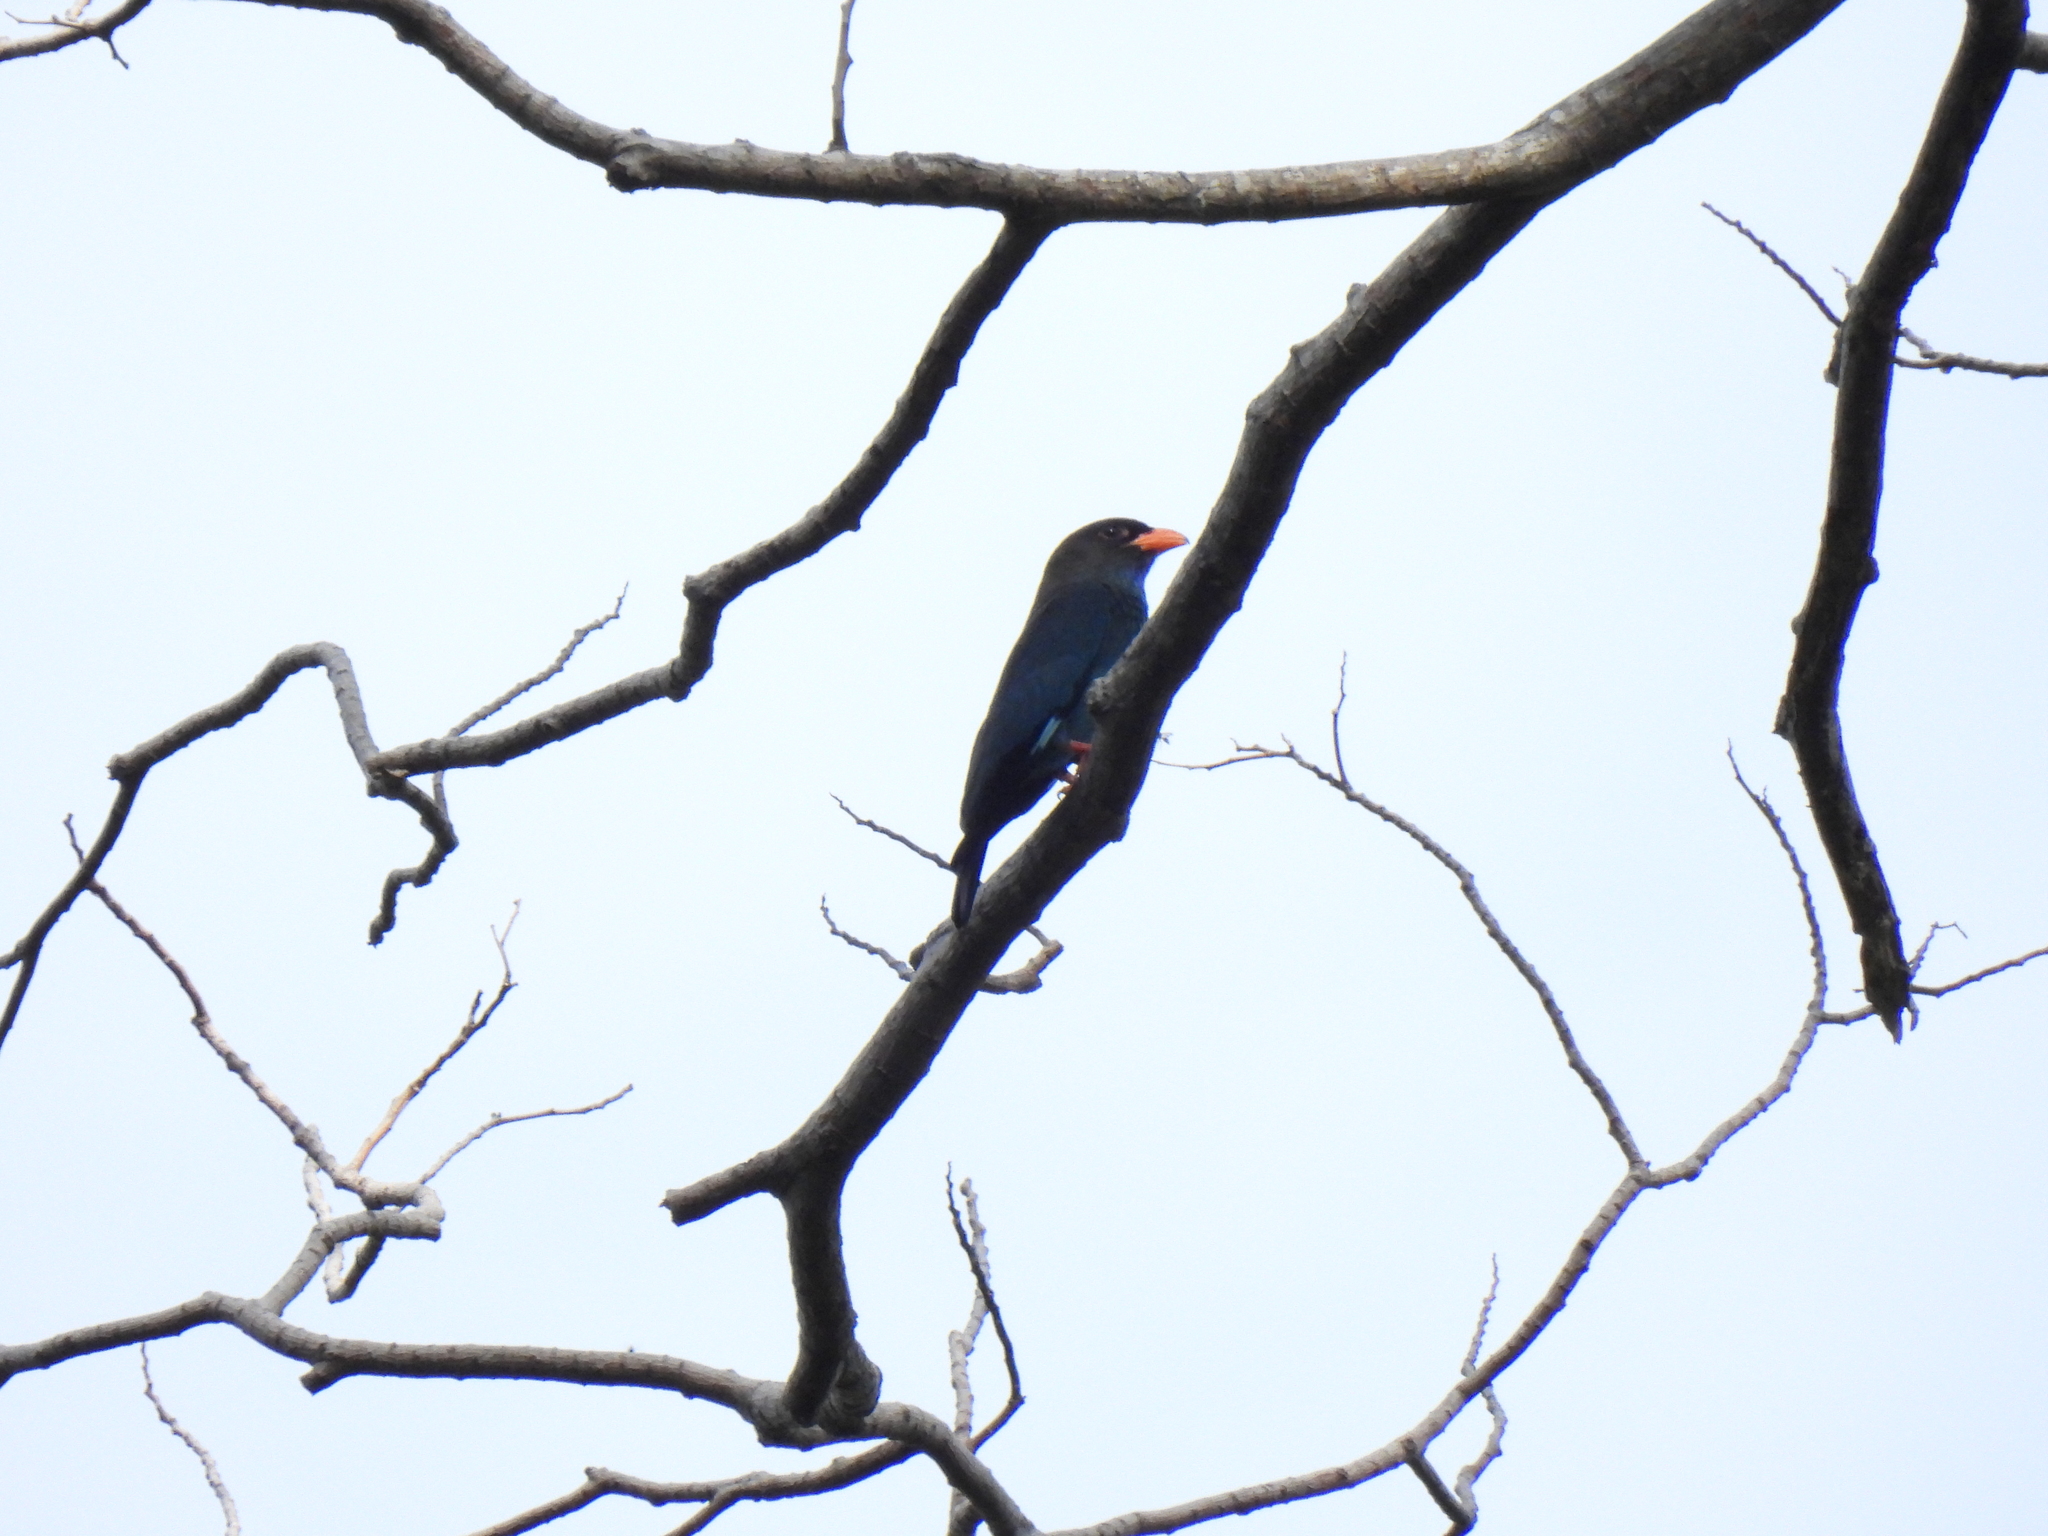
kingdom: Animalia
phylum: Chordata
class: Aves
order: Coraciiformes
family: Coraciidae
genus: Eurystomus
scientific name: Eurystomus orientalis
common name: Oriental dollarbird
